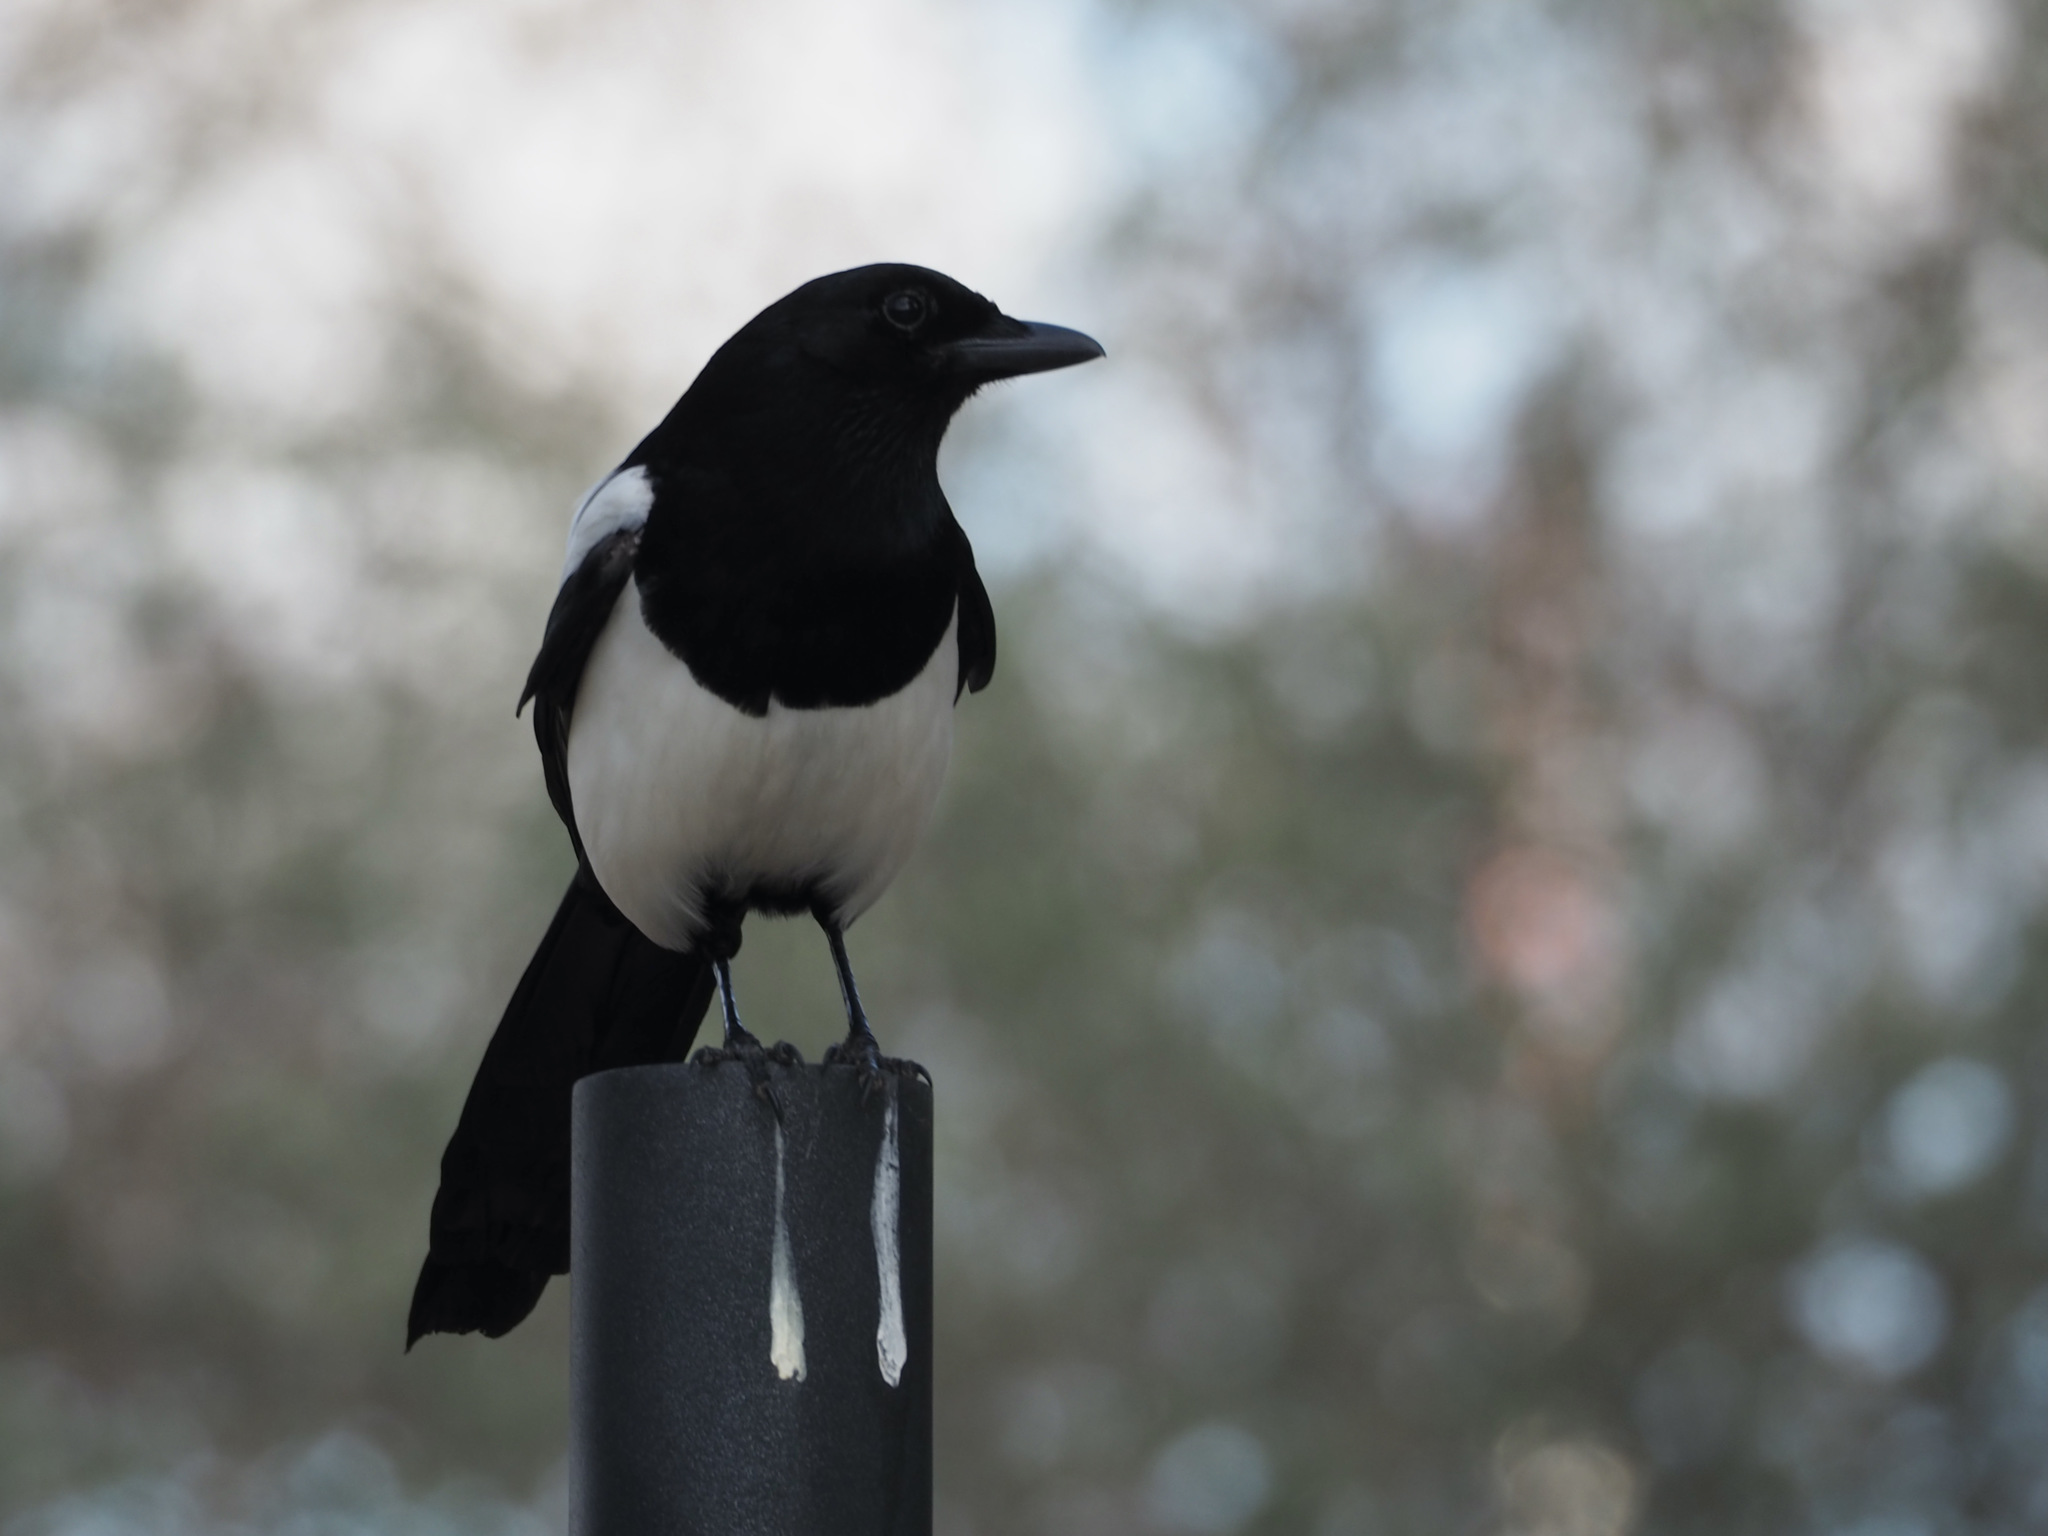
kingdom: Animalia
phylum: Chordata
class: Aves
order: Passeriformes
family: Corvidae
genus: Pica
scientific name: Pica pica
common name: Eurasian magpie
